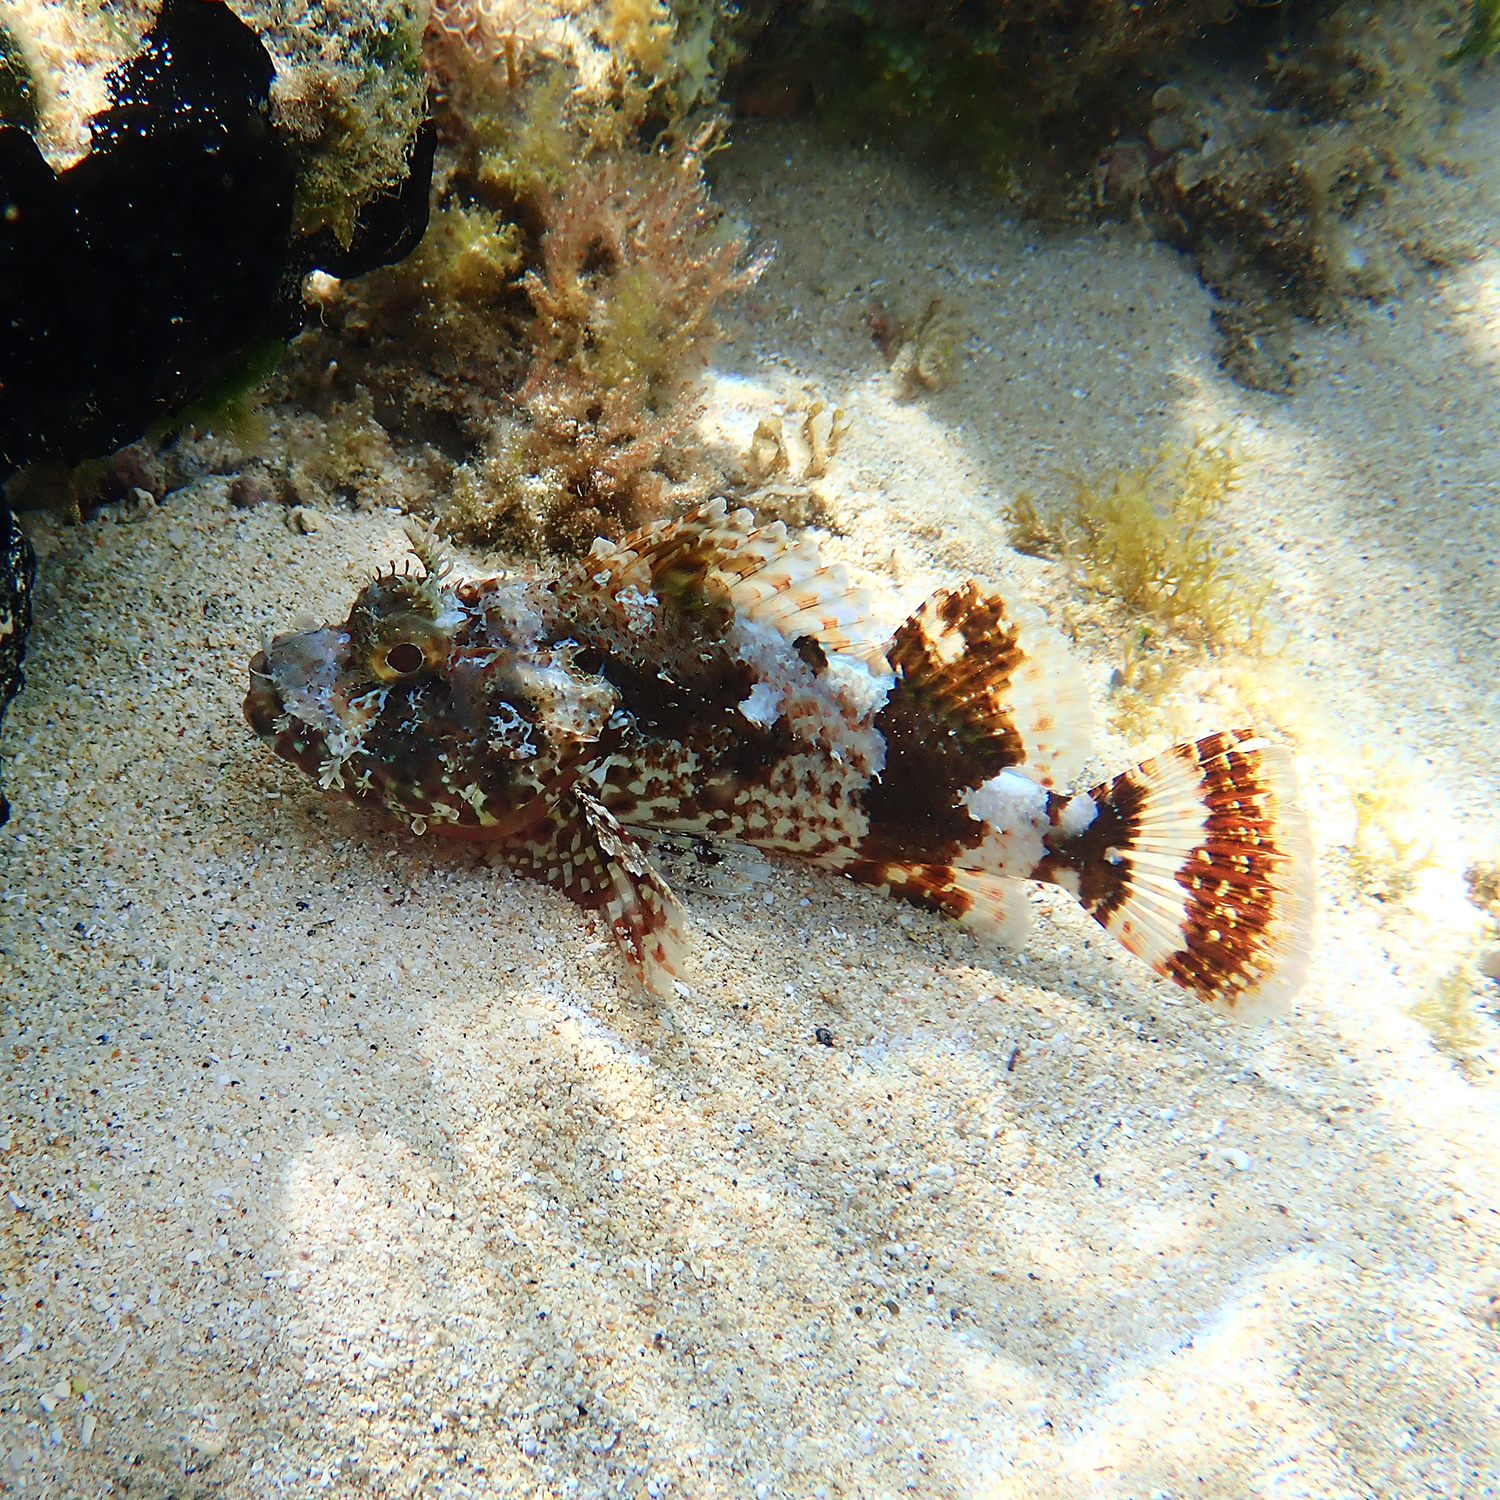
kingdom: Animalia
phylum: Chordata
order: Scorpaeniformes
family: Scorpaenidae
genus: Scorpaena
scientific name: Scorpaena cardinalis
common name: Cardinal scorpionfish
